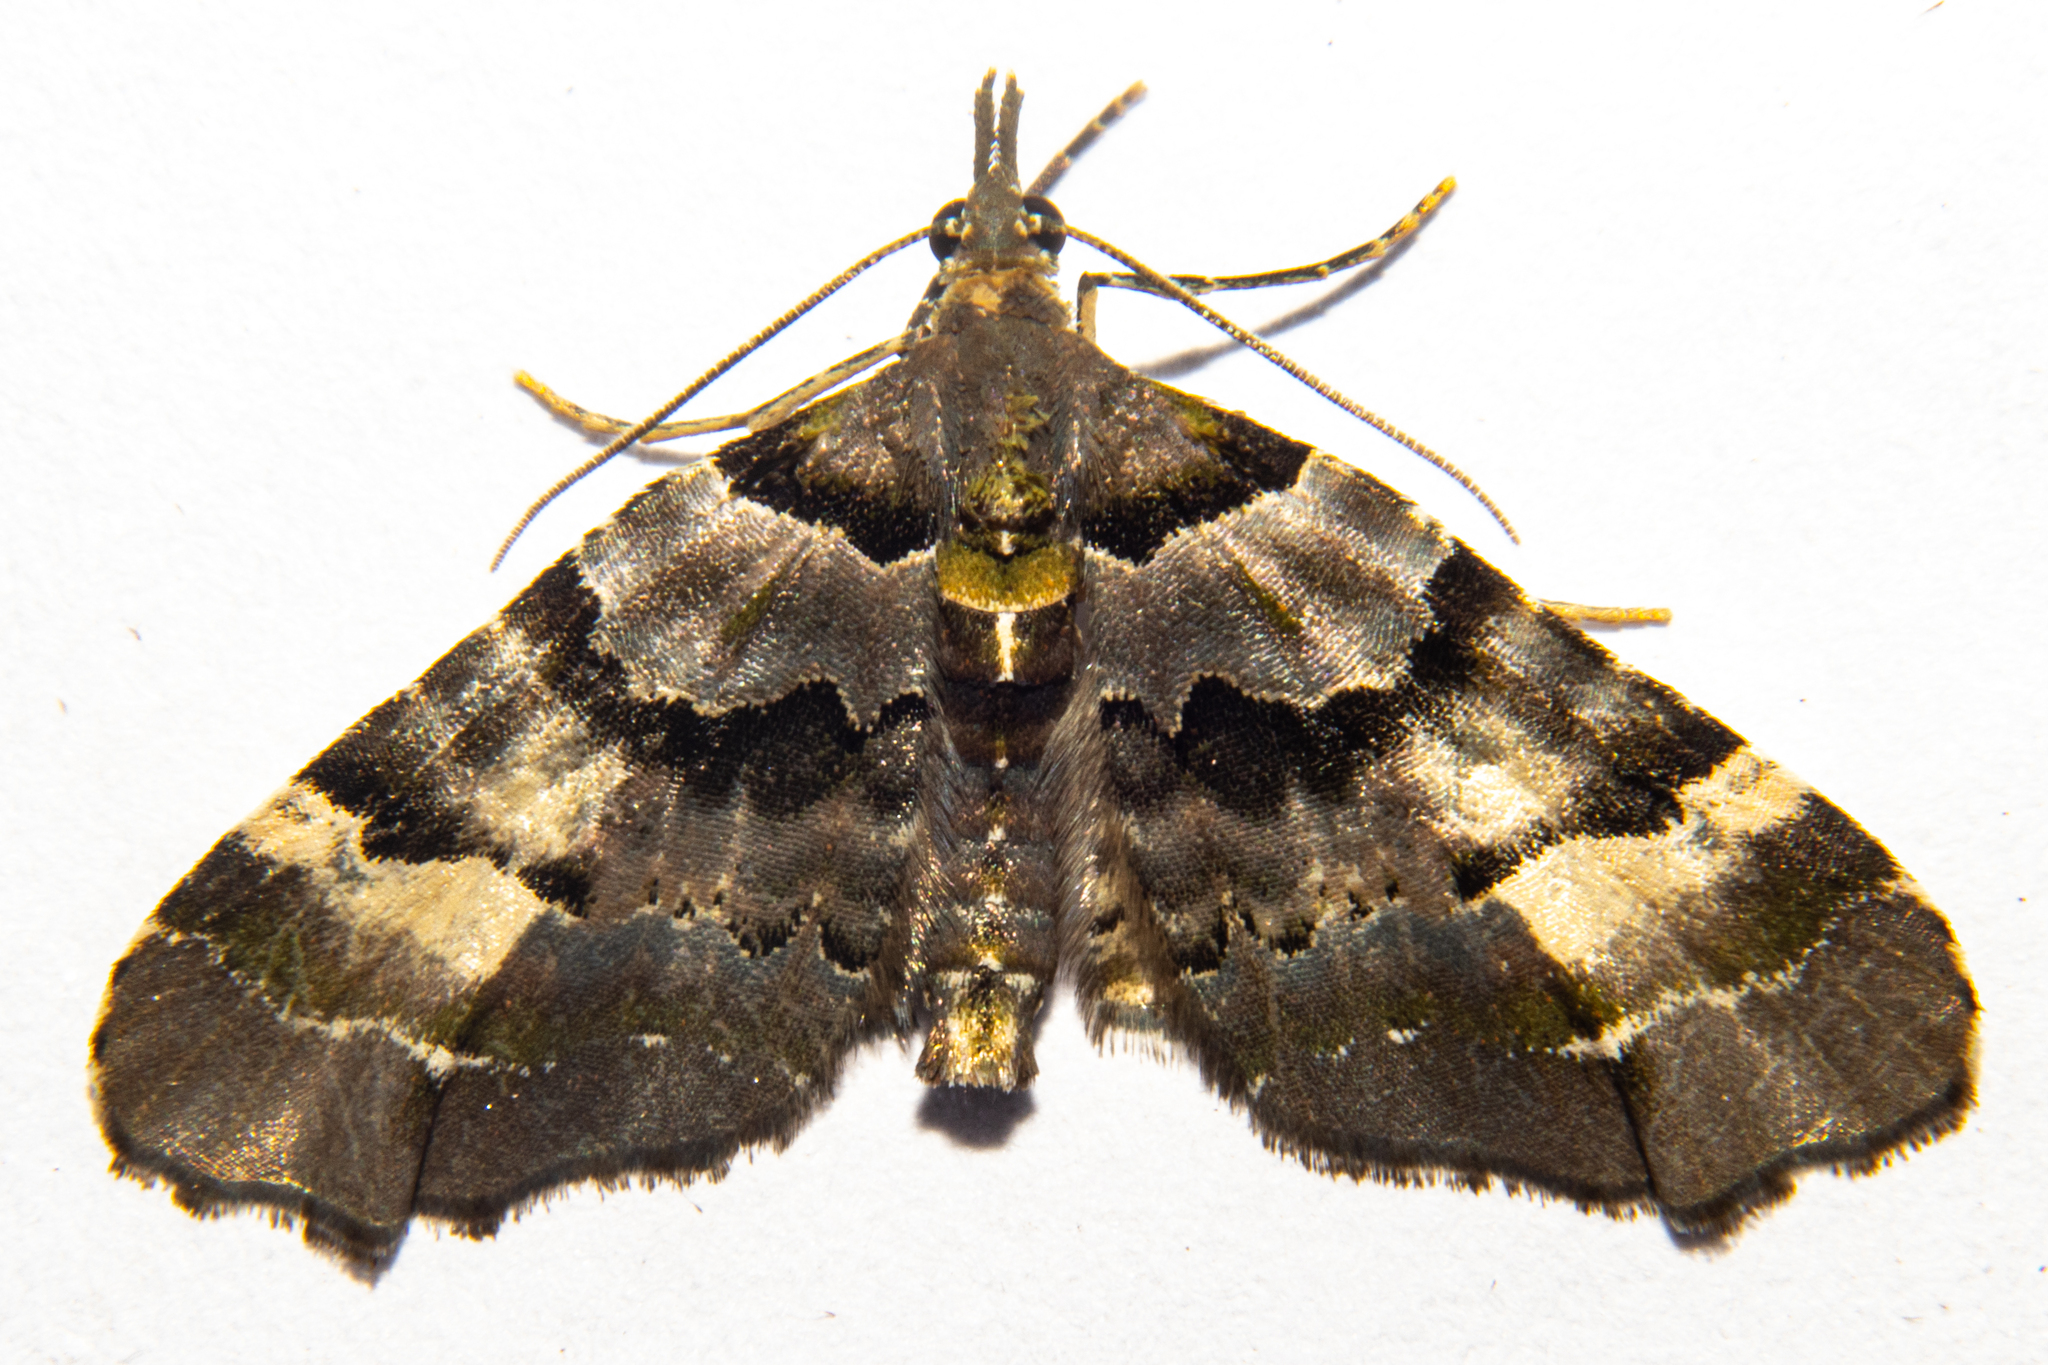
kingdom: Animalia
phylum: Arthropoda
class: Insecta
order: Lepidoptera
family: Geometridae
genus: Elvia
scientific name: Elvia glaucata
